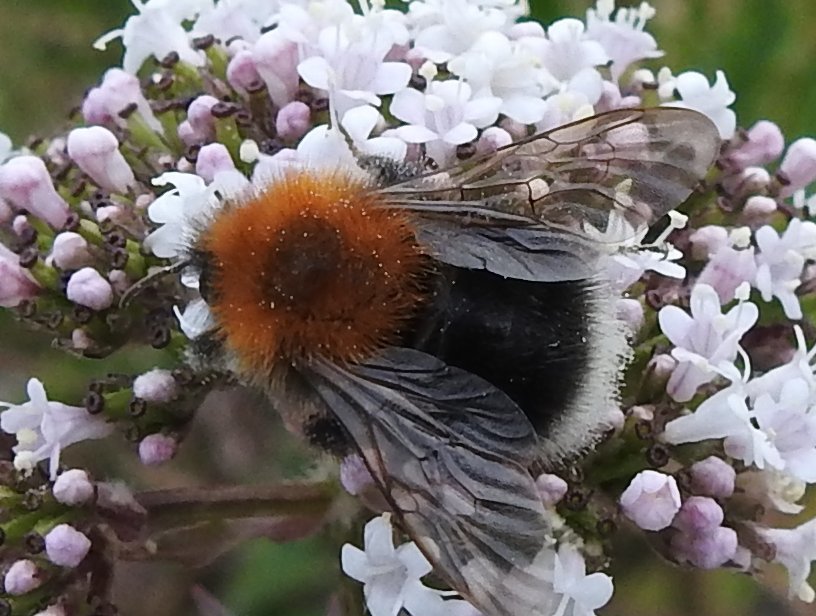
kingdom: Animalia
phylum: Arthropoda
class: Insecta
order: Hymenoptera
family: Apidae
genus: Bombus
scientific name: Bombus hypnorum
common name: New garden bumblebee
